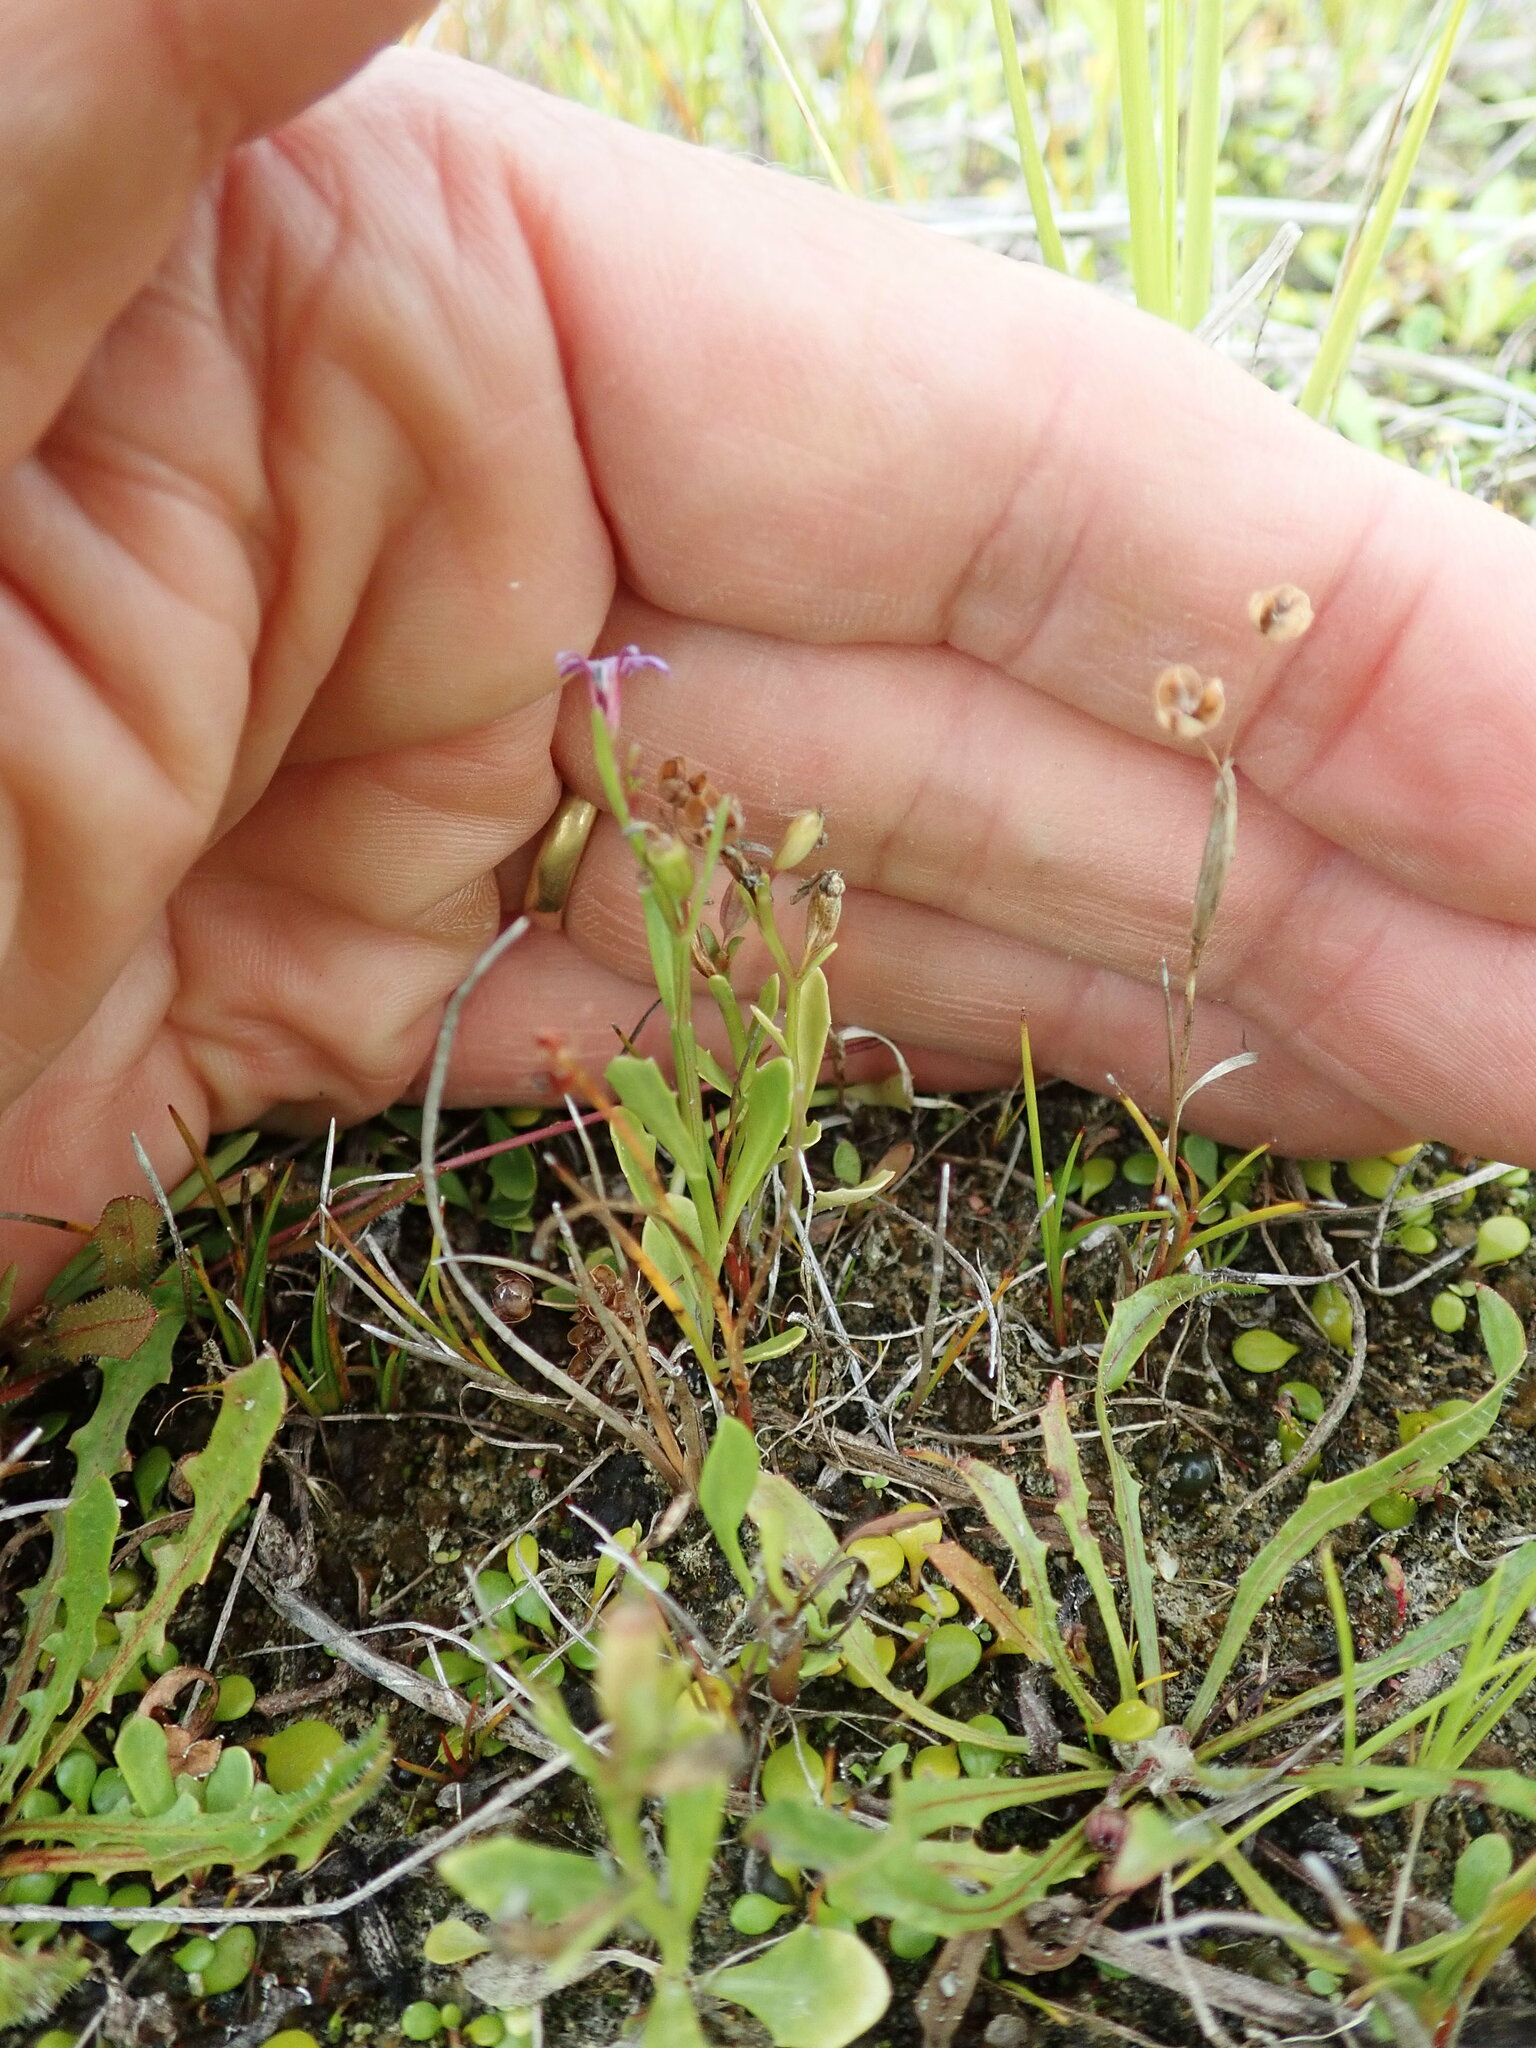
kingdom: Plantae
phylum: Tracheophyta
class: Magnoliopsida
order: Asterales
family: Campanulaceae
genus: Lobelia
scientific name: Lobelia anceps
